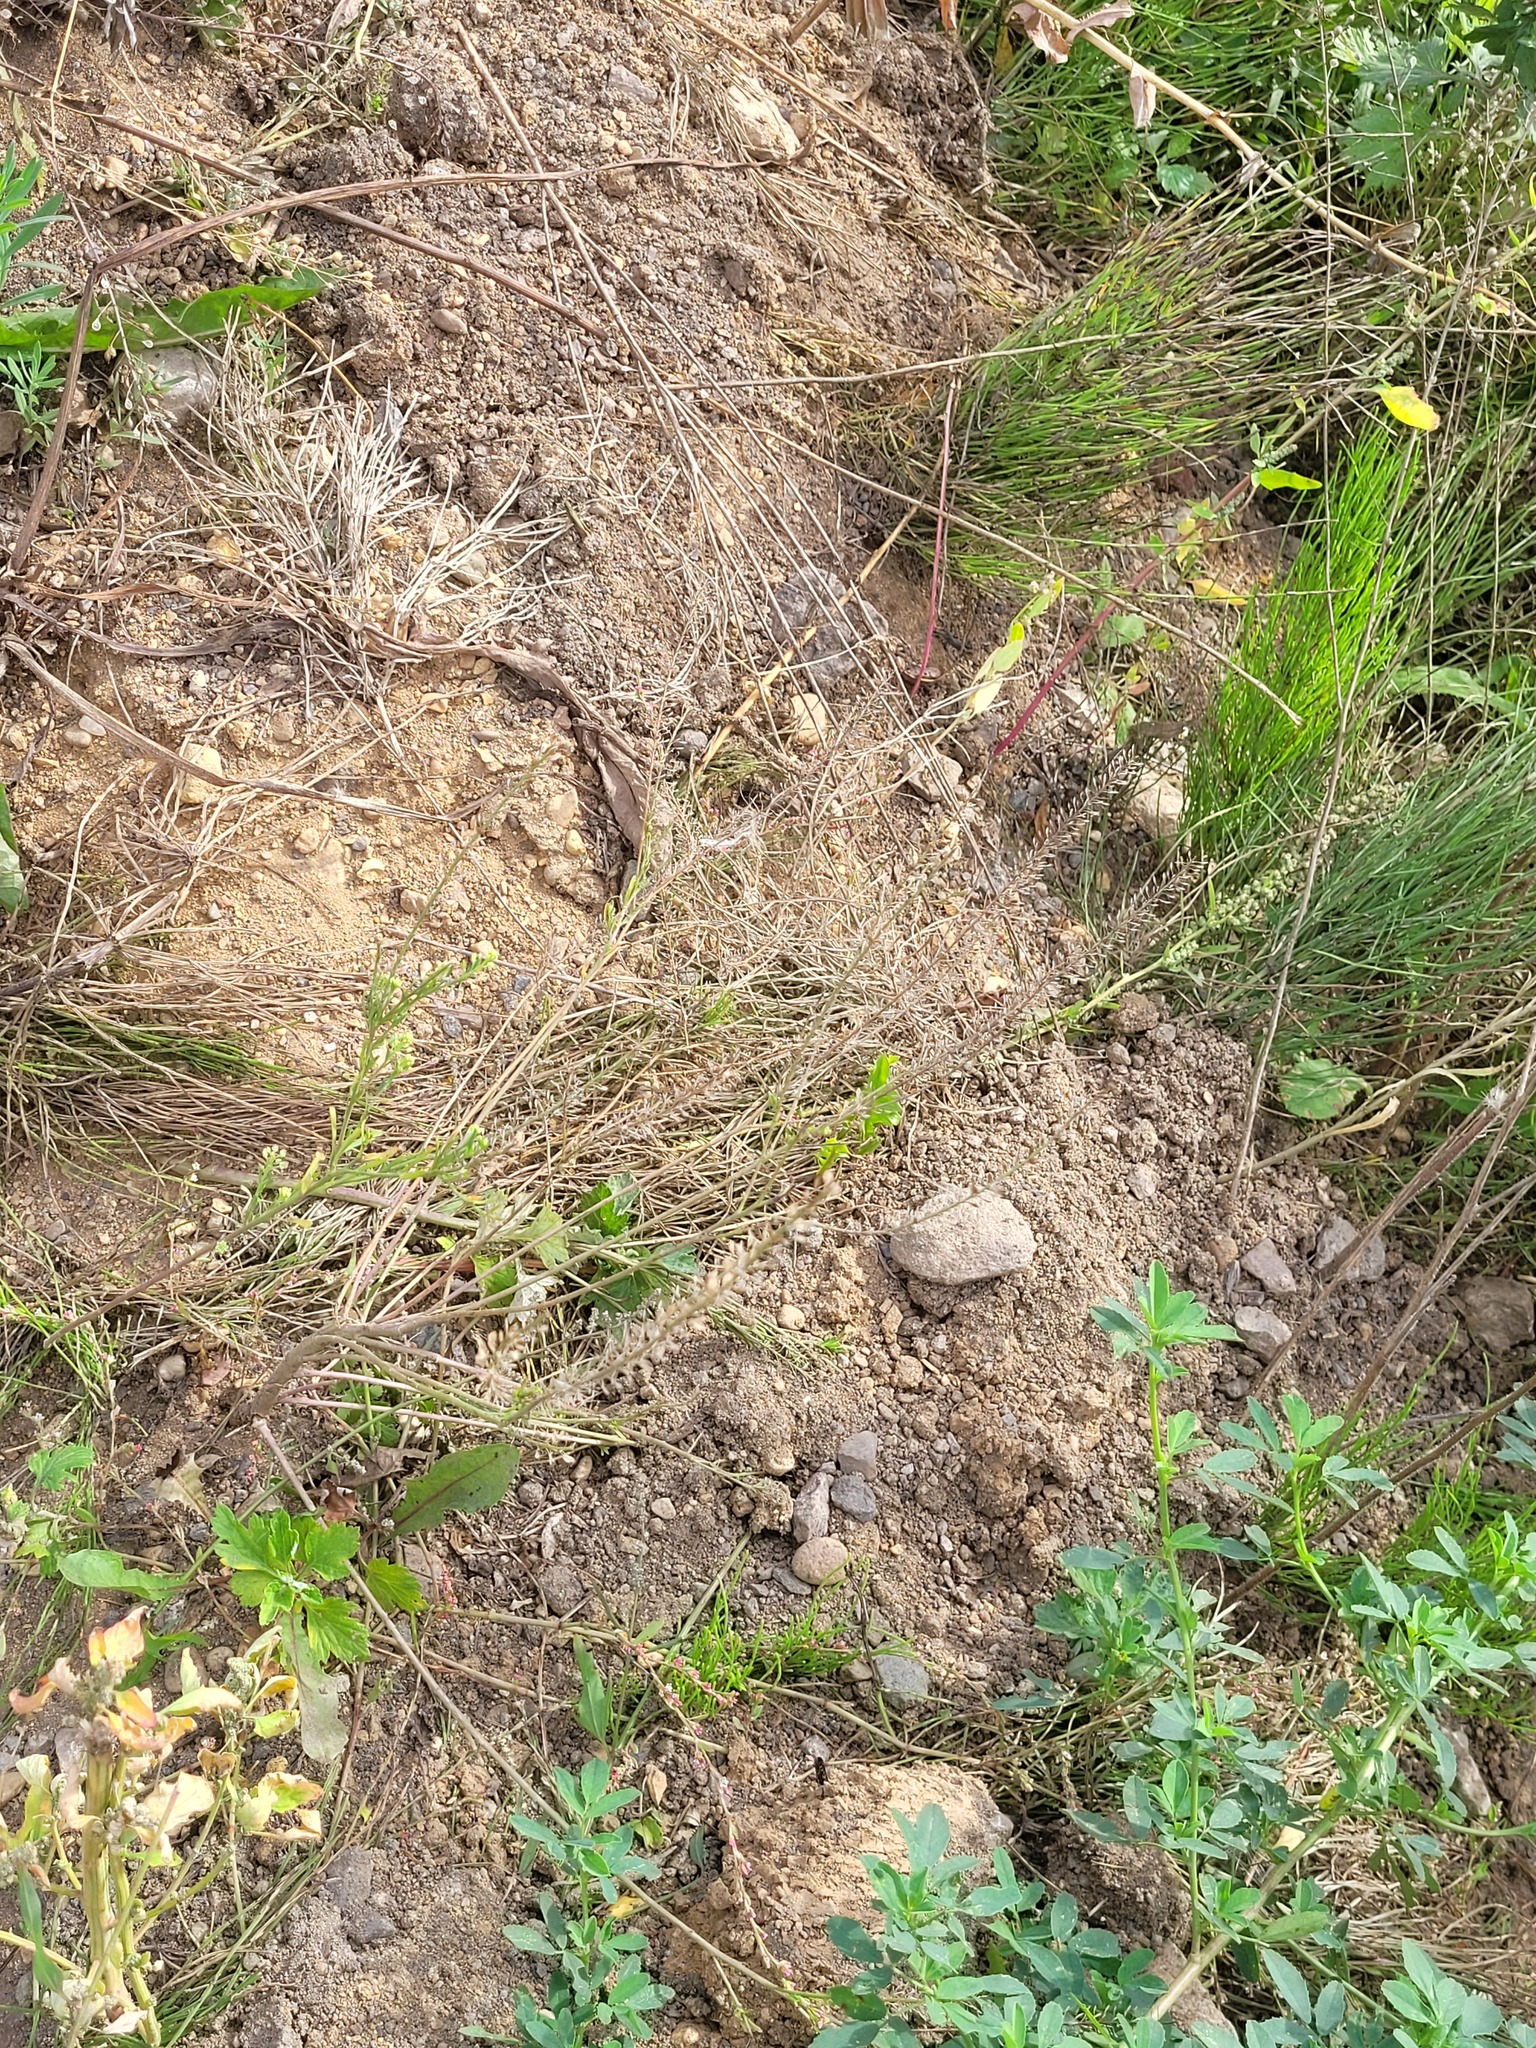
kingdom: Plantae
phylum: Tracheophyta
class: Magnoliopsida
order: Brassicales
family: Brassicaceae
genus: Lepidium
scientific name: Lepidium densiflorum
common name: Miner's pepperwort
